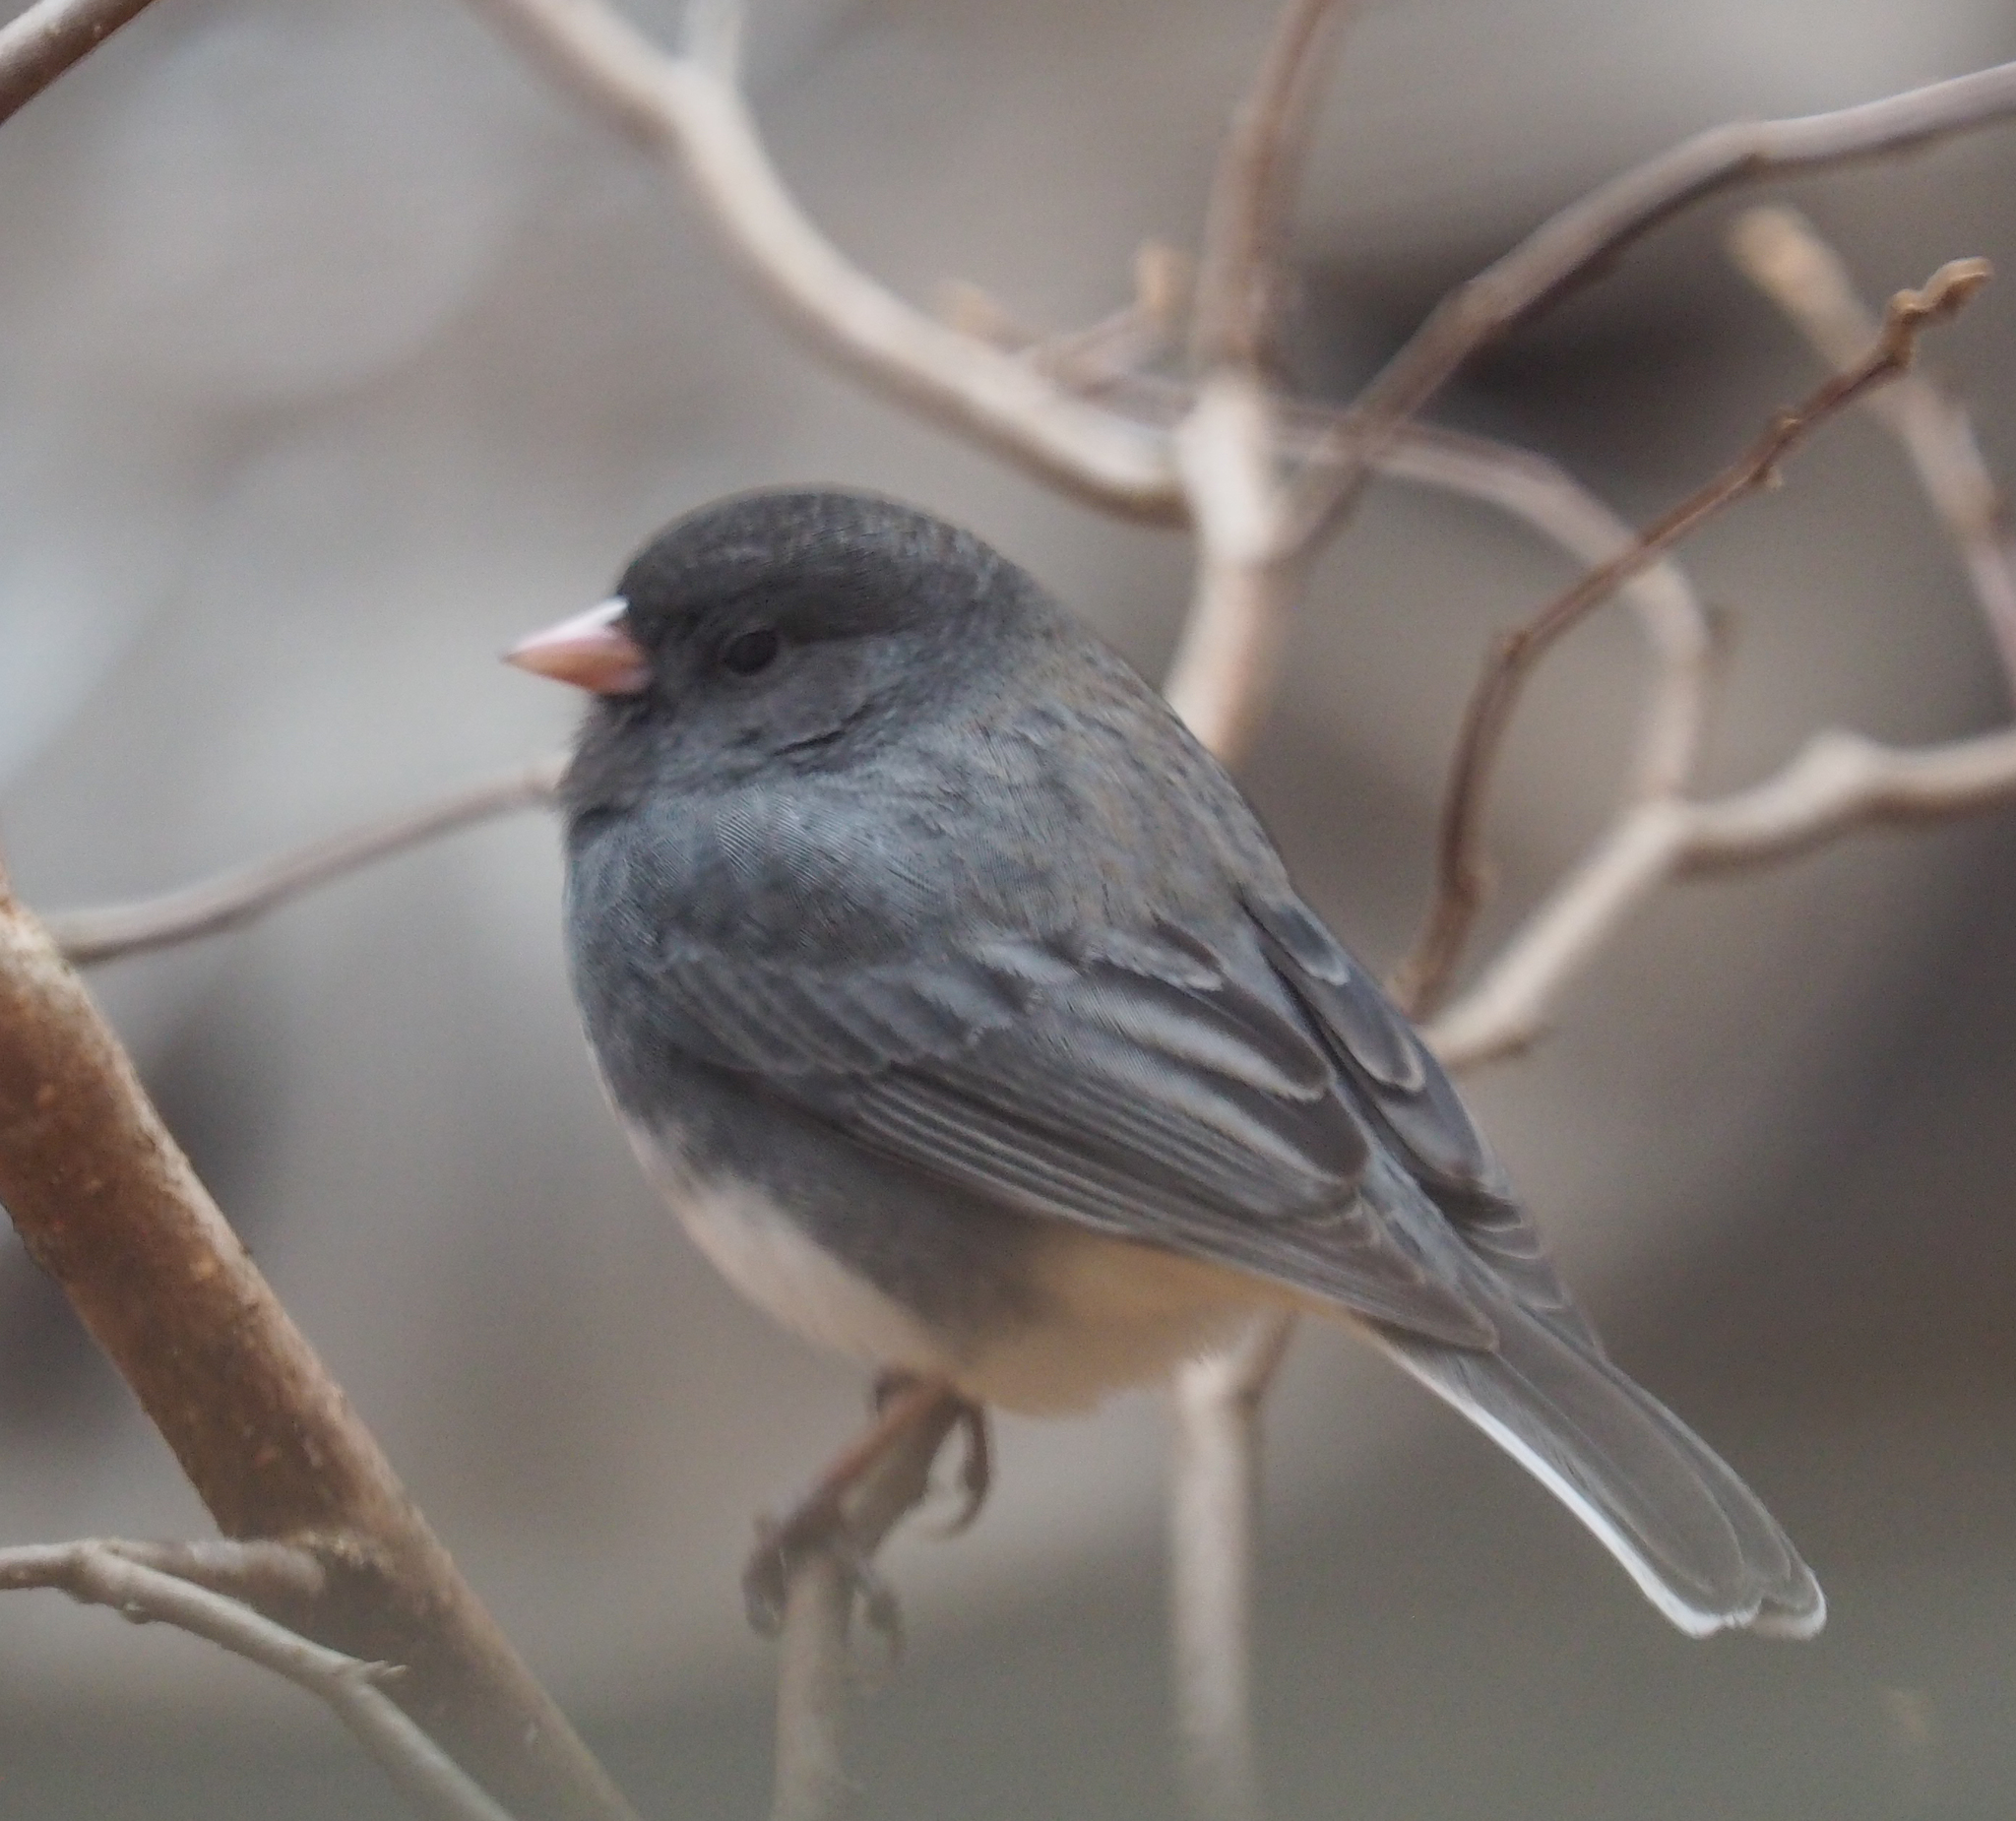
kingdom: Animalia
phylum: Chordata
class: Aves
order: Passeriformes
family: Passerellidae
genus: Junco
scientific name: Junco hyemalis
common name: Dark-eyed junco
